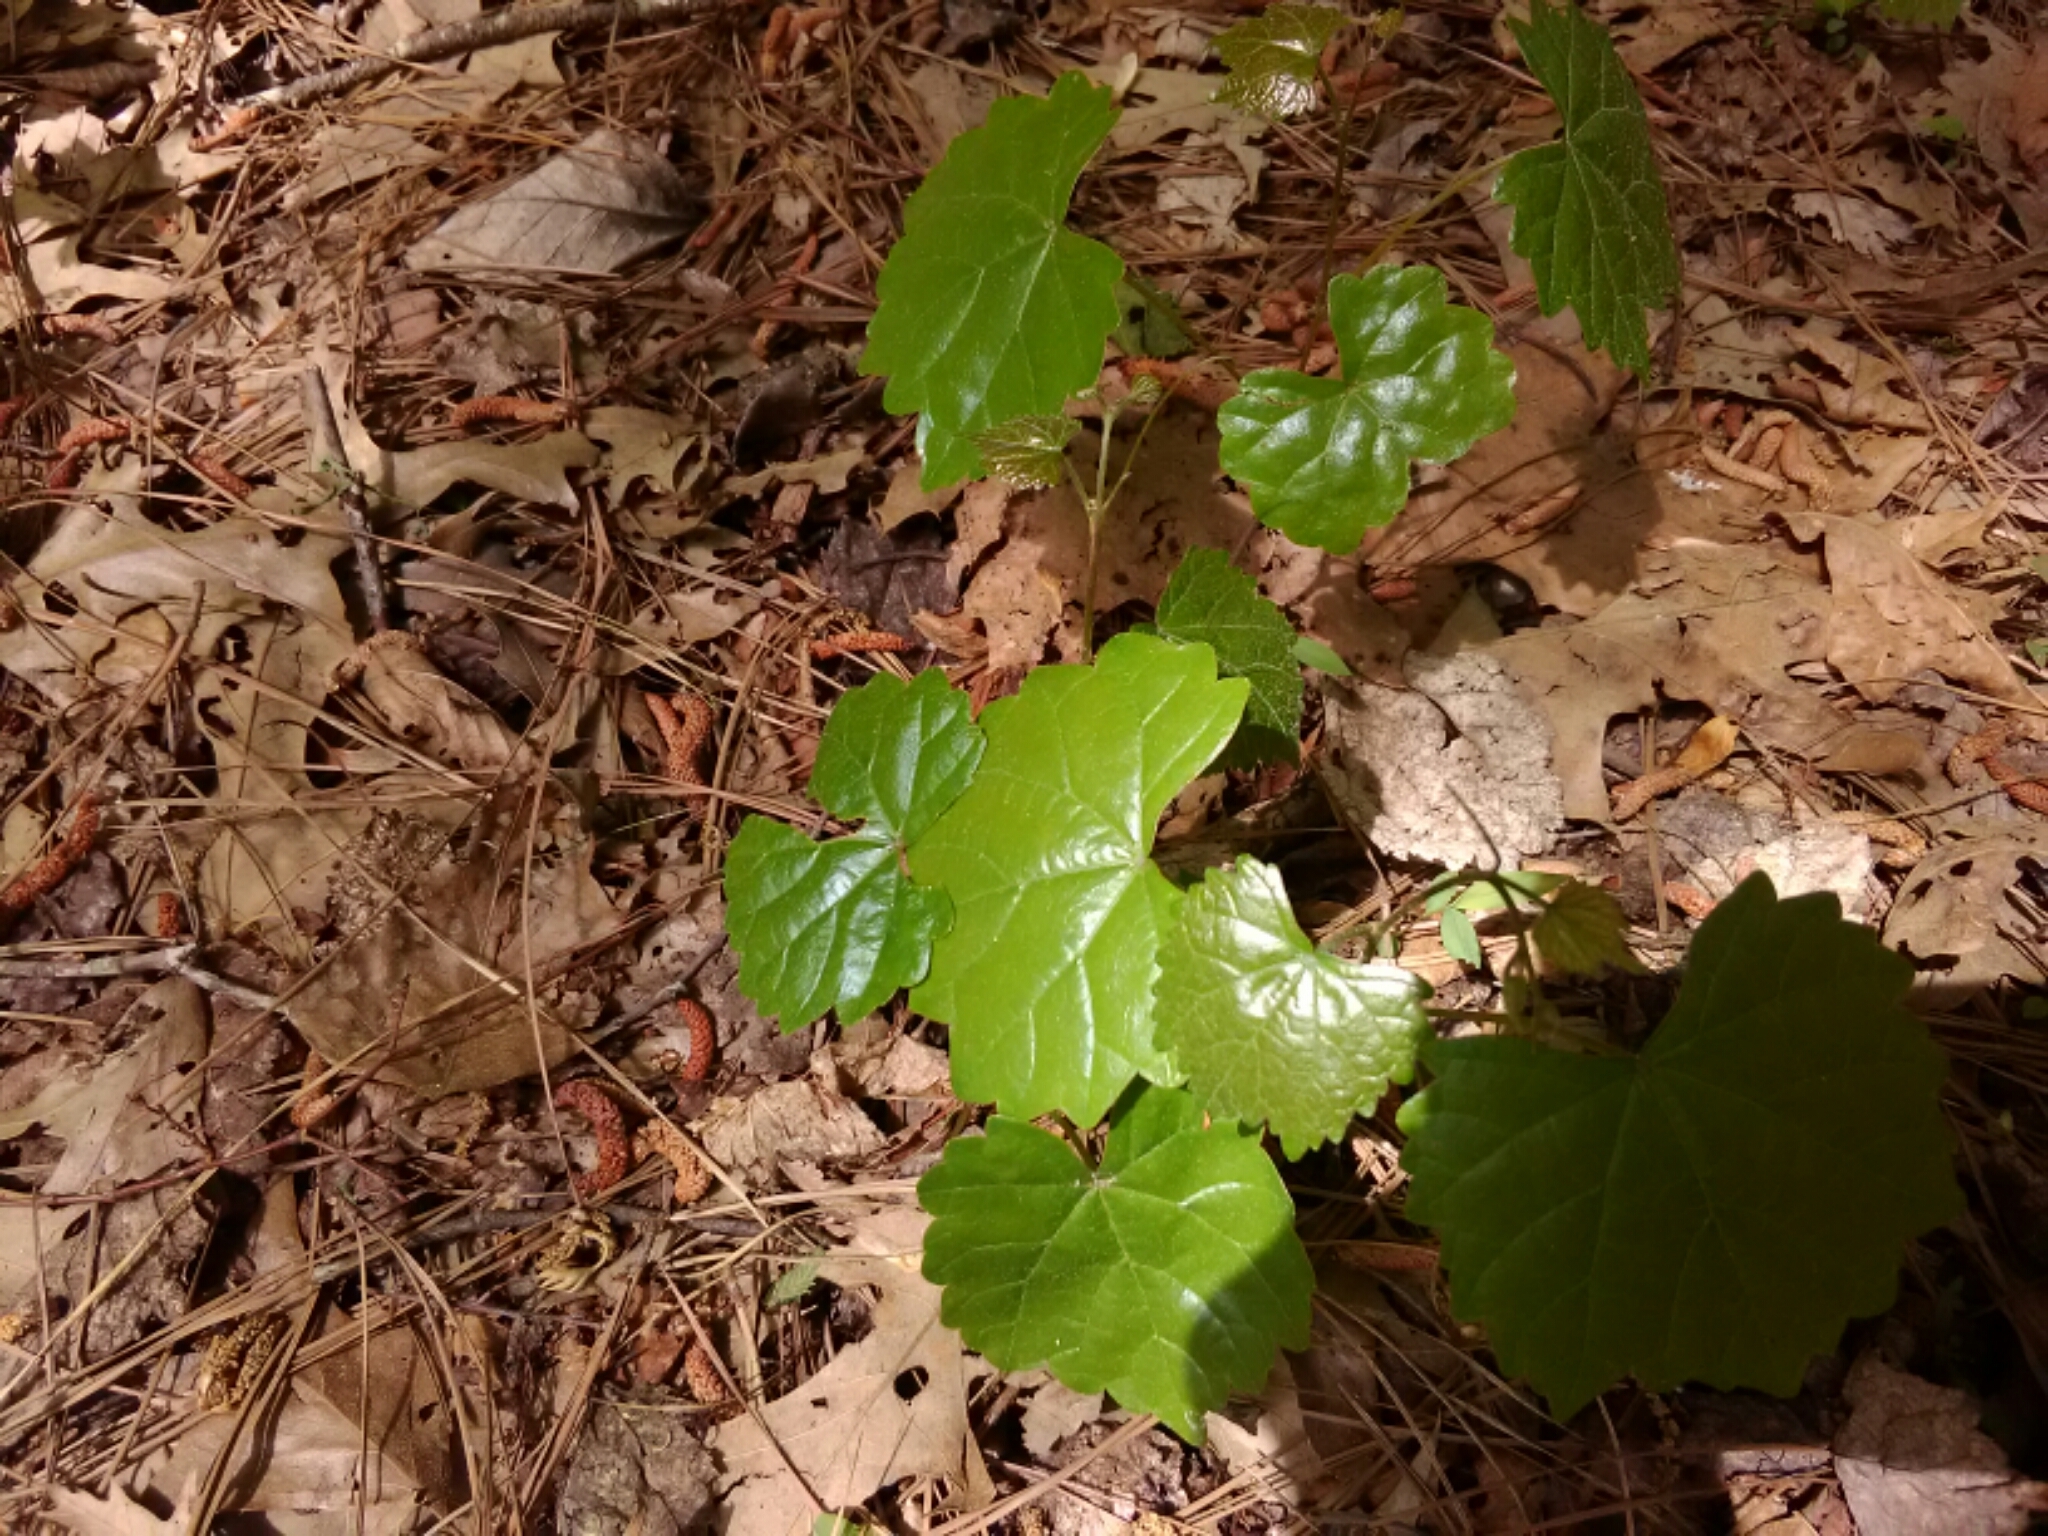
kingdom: Plantae
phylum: Tracheophyta
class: Magnoliopsida
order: Vitales
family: Vitaceae
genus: Vitis
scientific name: Vitis rotundifolia
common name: Muscadine grape
